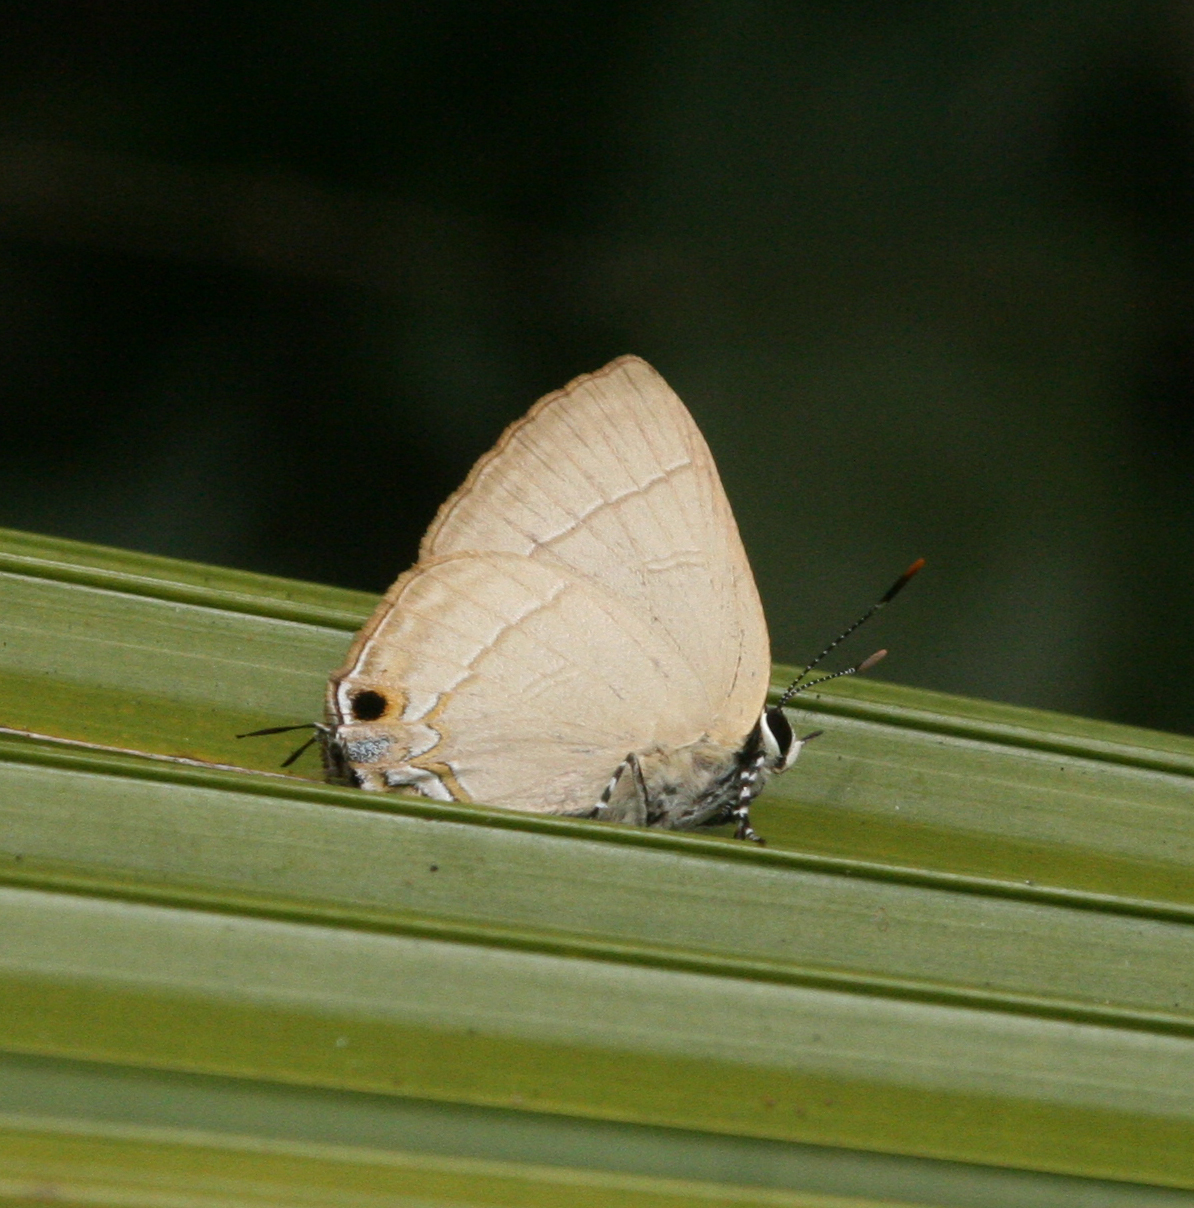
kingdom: Animalia
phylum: Arthropoda
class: Insecta
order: Lepidoptera
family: Lycaenidae
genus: Rapala
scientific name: Rapala dieneces
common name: Scarlet flash
